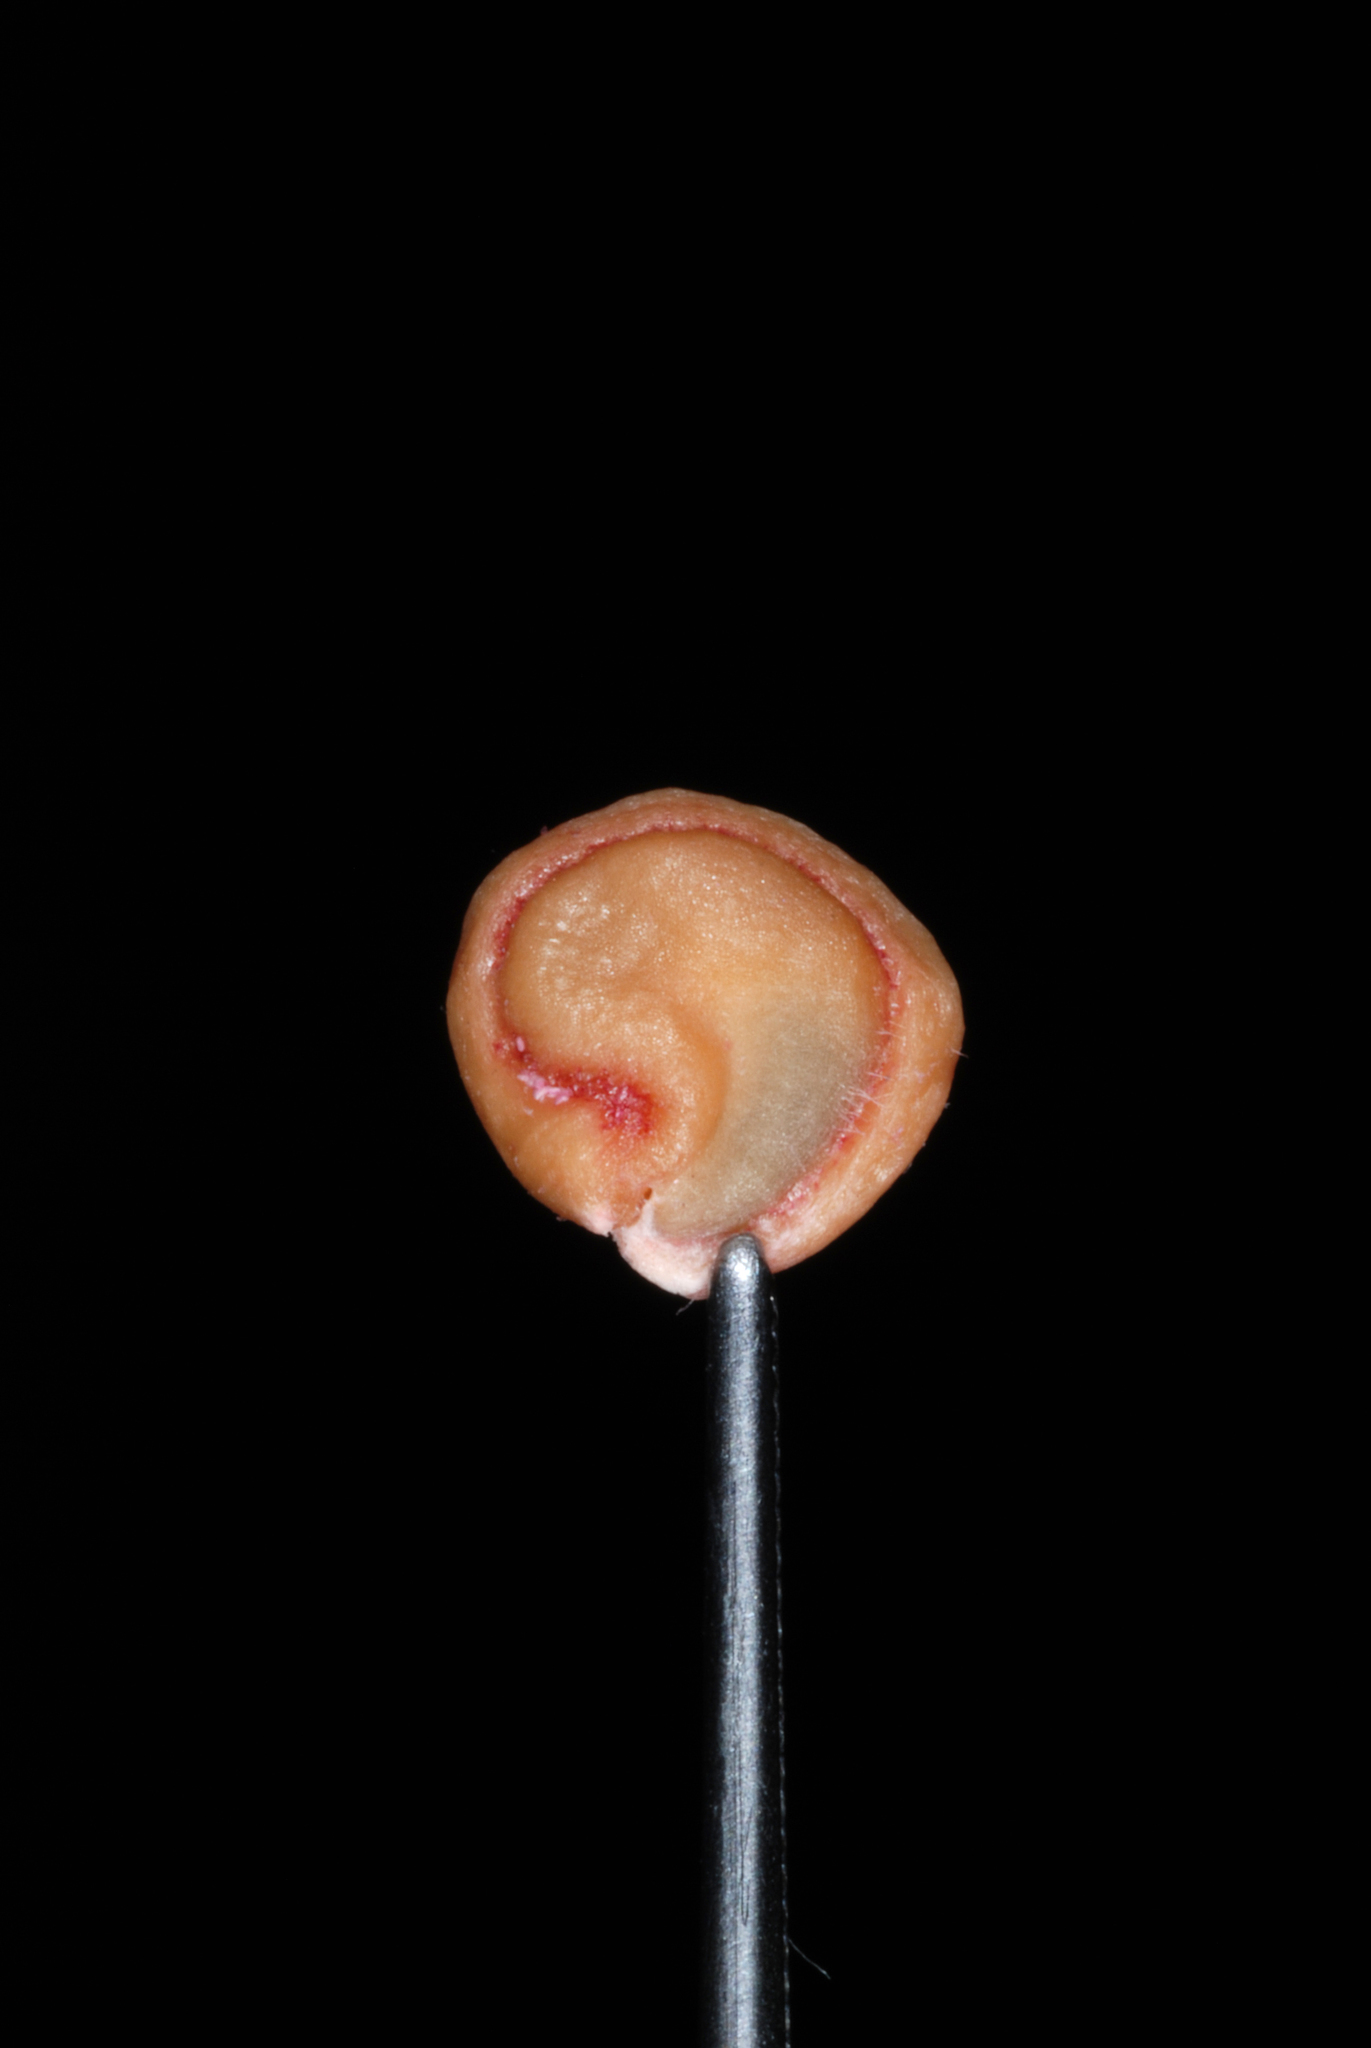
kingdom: Plantae
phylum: Tracheophyta
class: Magnoliopsida
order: Caryophyllales
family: Cactaceae
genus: Opuntia
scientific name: Opuntia humifusa
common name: Eastern prickly-pear
